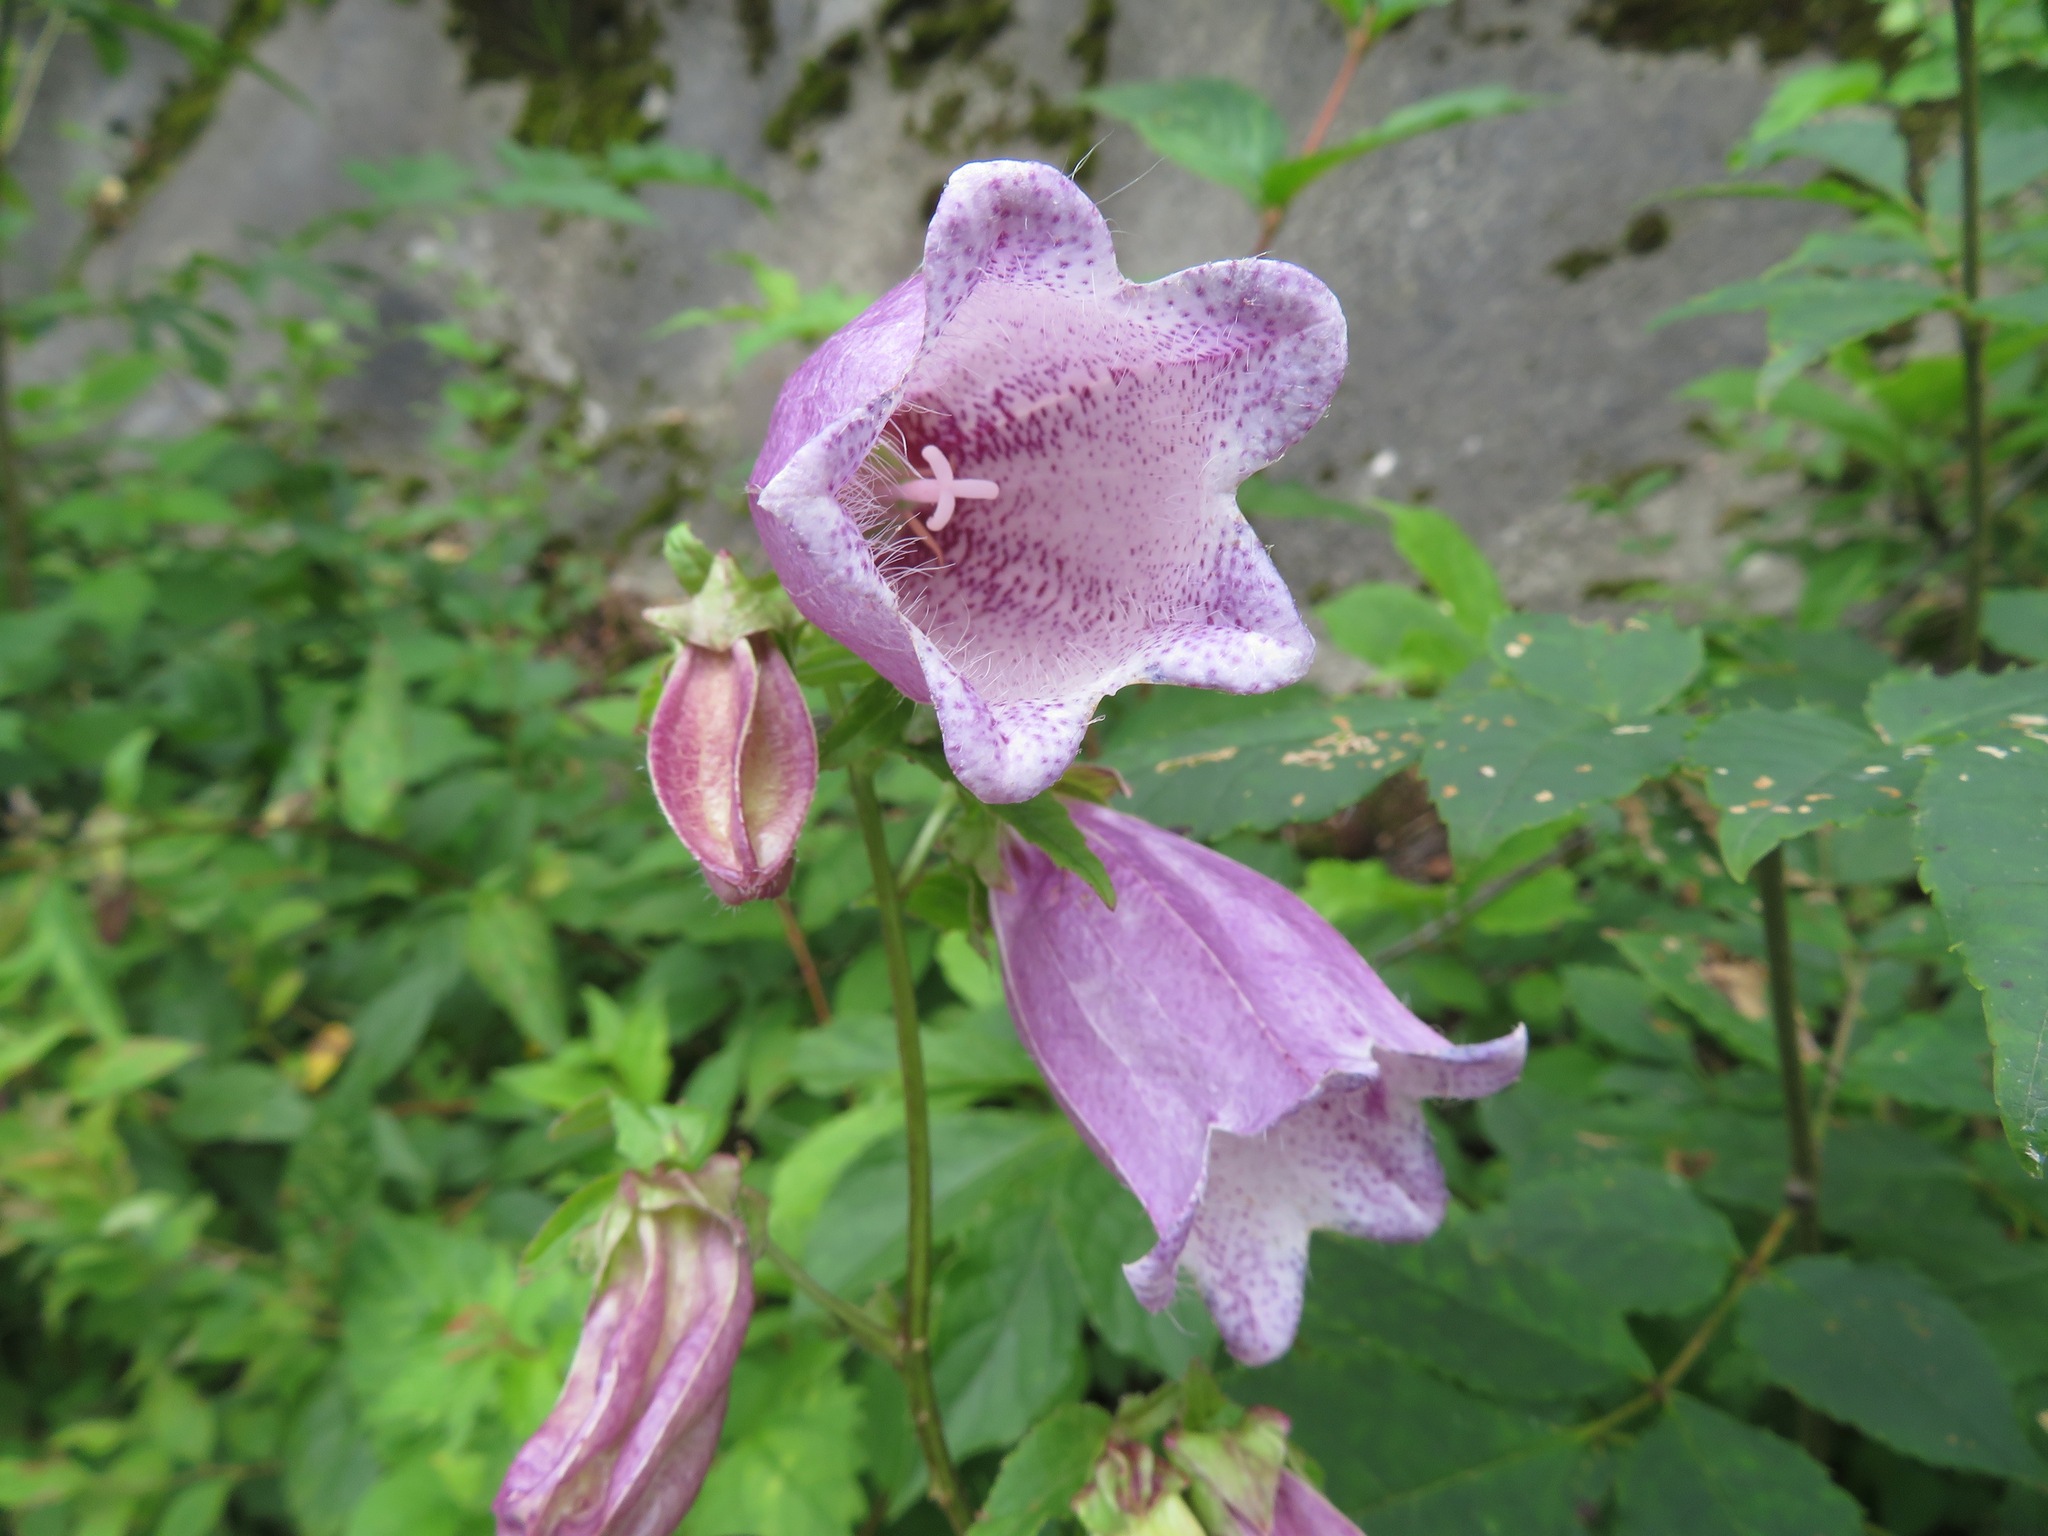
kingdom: Plantae
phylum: Tracheophyta
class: Magnoliopsida
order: Asterales
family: Campanulaceae
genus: Campanula
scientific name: Campanula punctata
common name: Spotted bellflower
